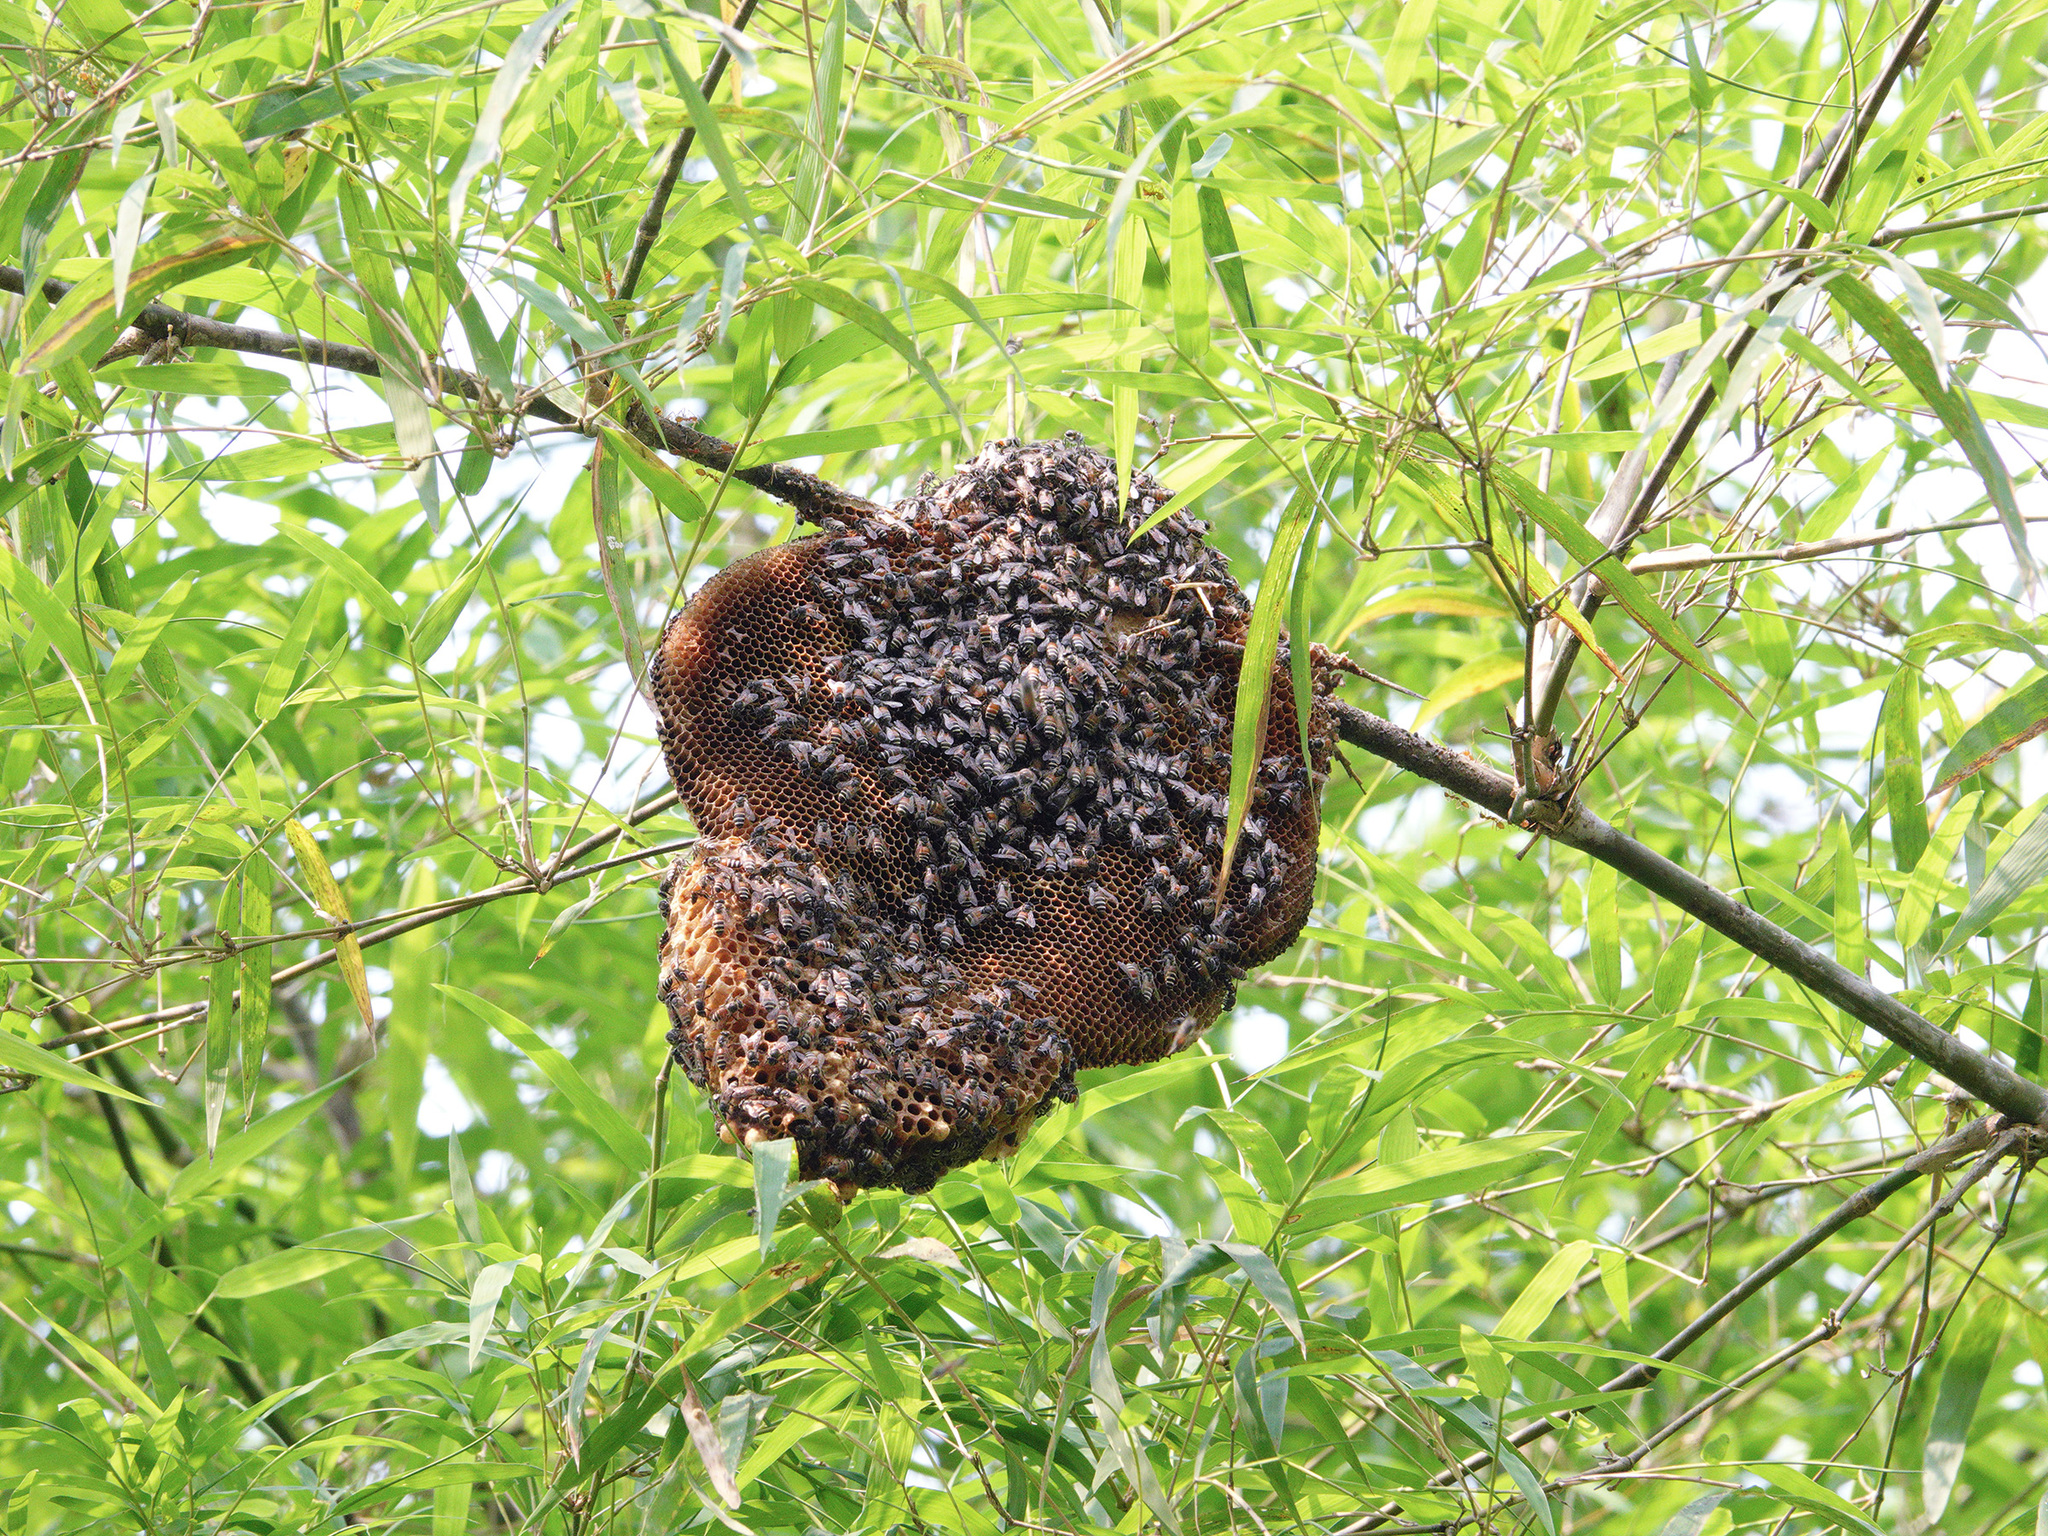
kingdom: Animalia
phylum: Arthropoda
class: Insecta
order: Hymenoptera
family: Apidae
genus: Apis
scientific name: Apis florea
